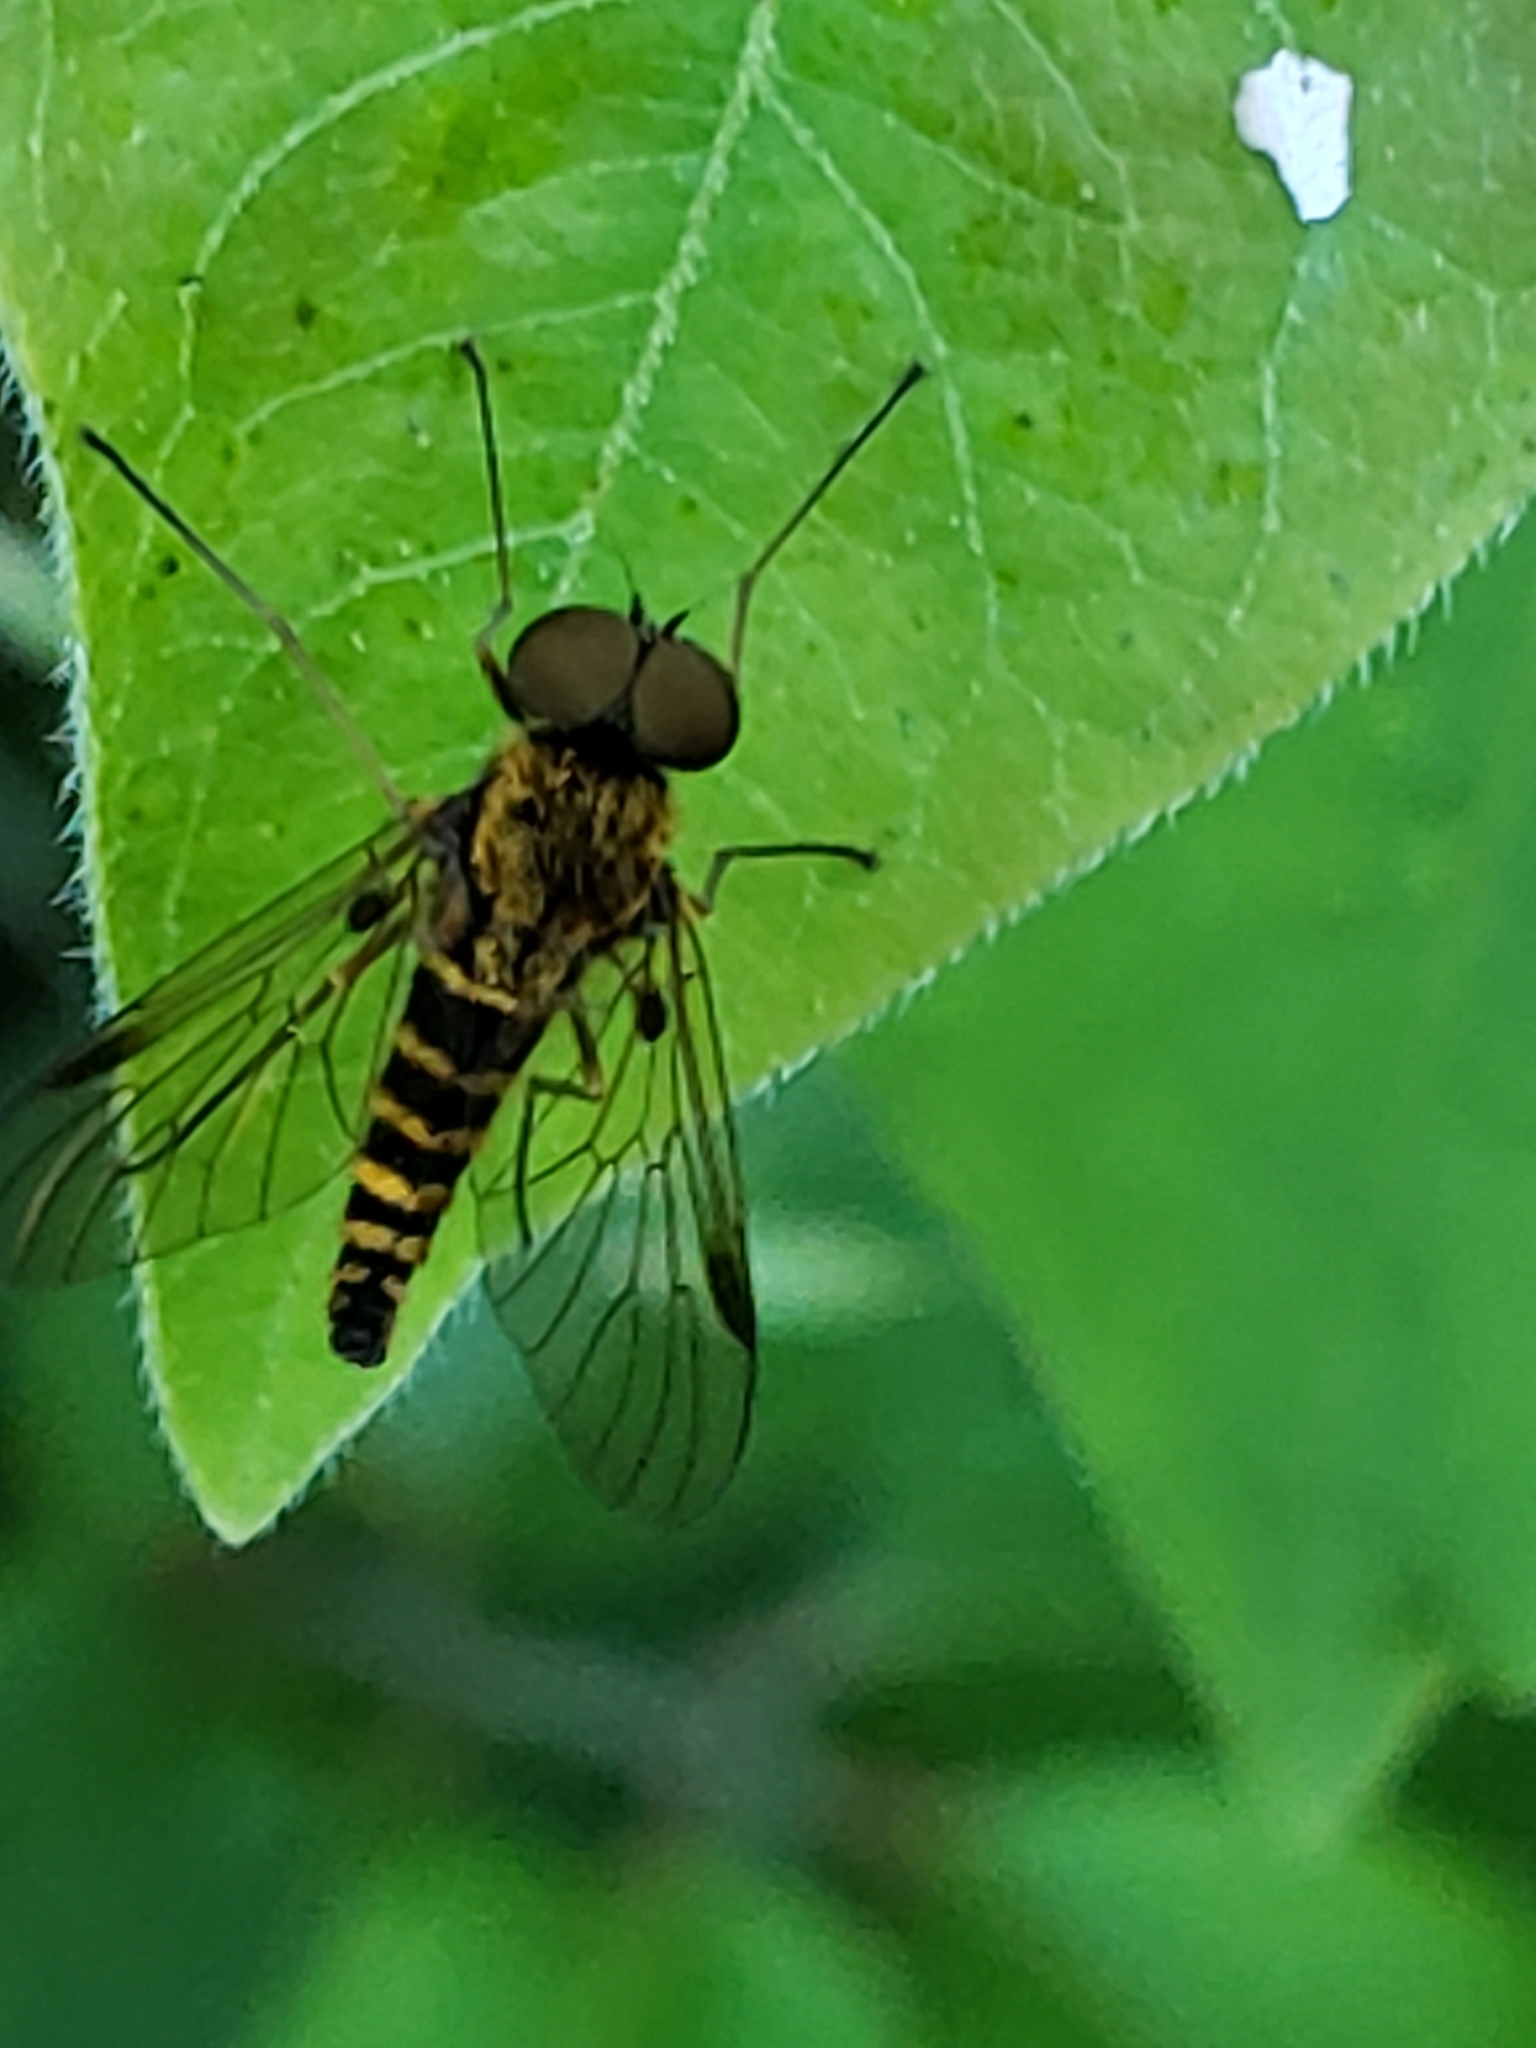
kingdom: Animalia
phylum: Arthropoda
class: Insecta
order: Diptera
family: Rhagionidae
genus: Chrysopilus
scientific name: Chrysopilus fasciatus
